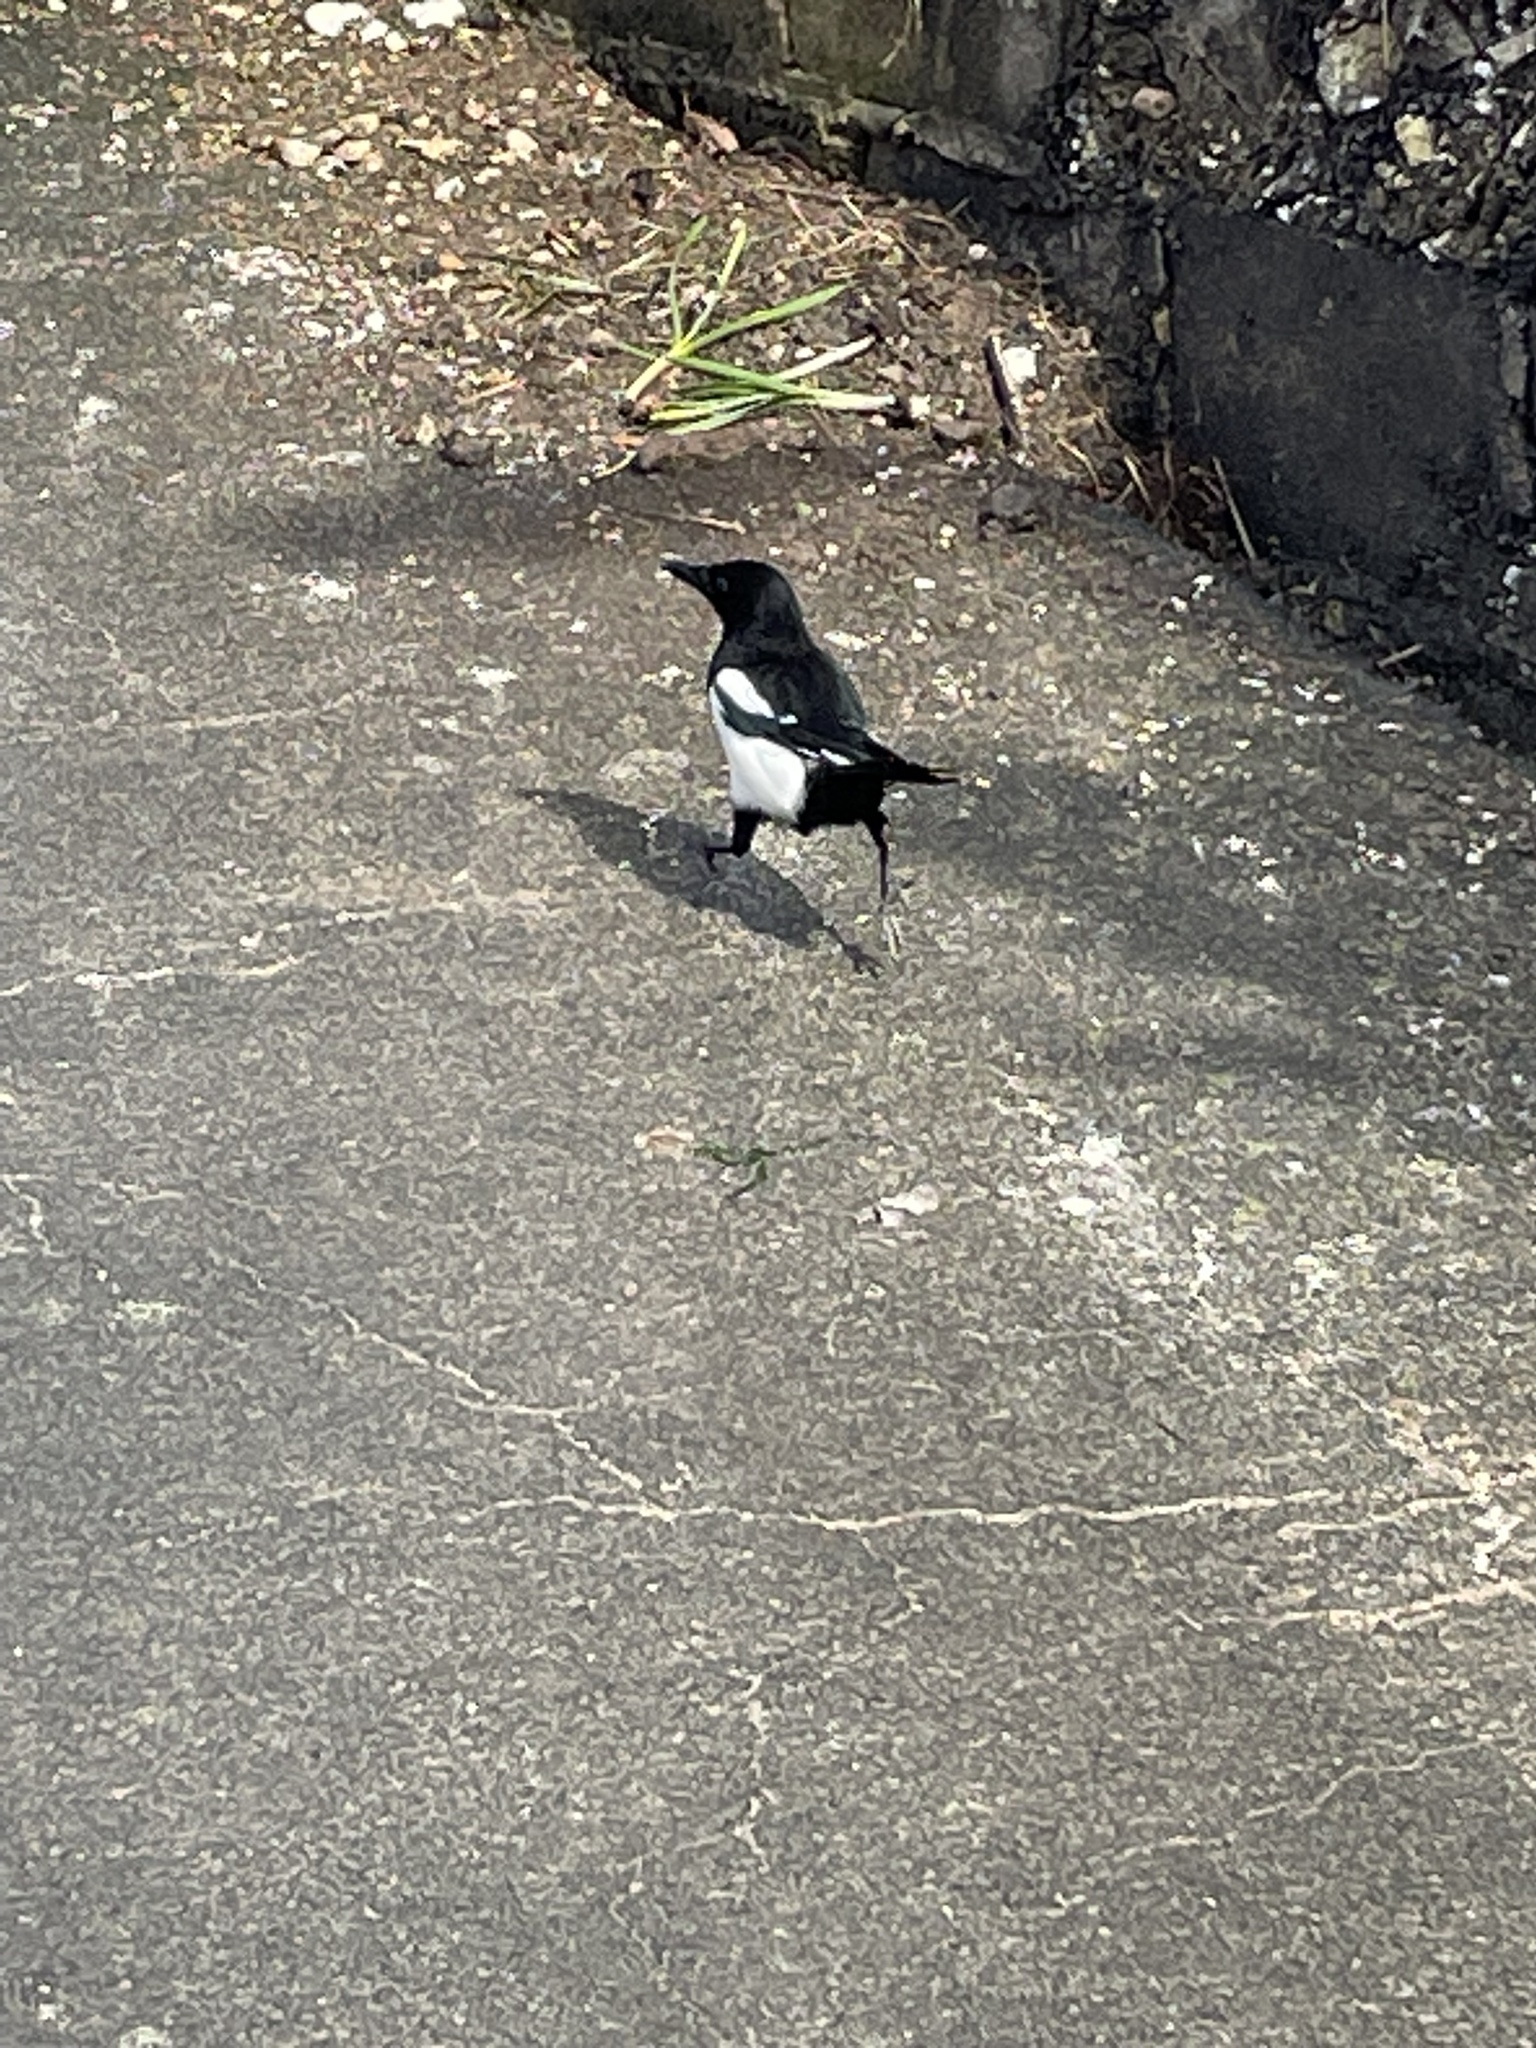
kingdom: Animalia
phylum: Chordata
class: Aves
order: Passeriformes
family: Corvidae
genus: Pica
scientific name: Pica pica
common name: Eurasian magpie
